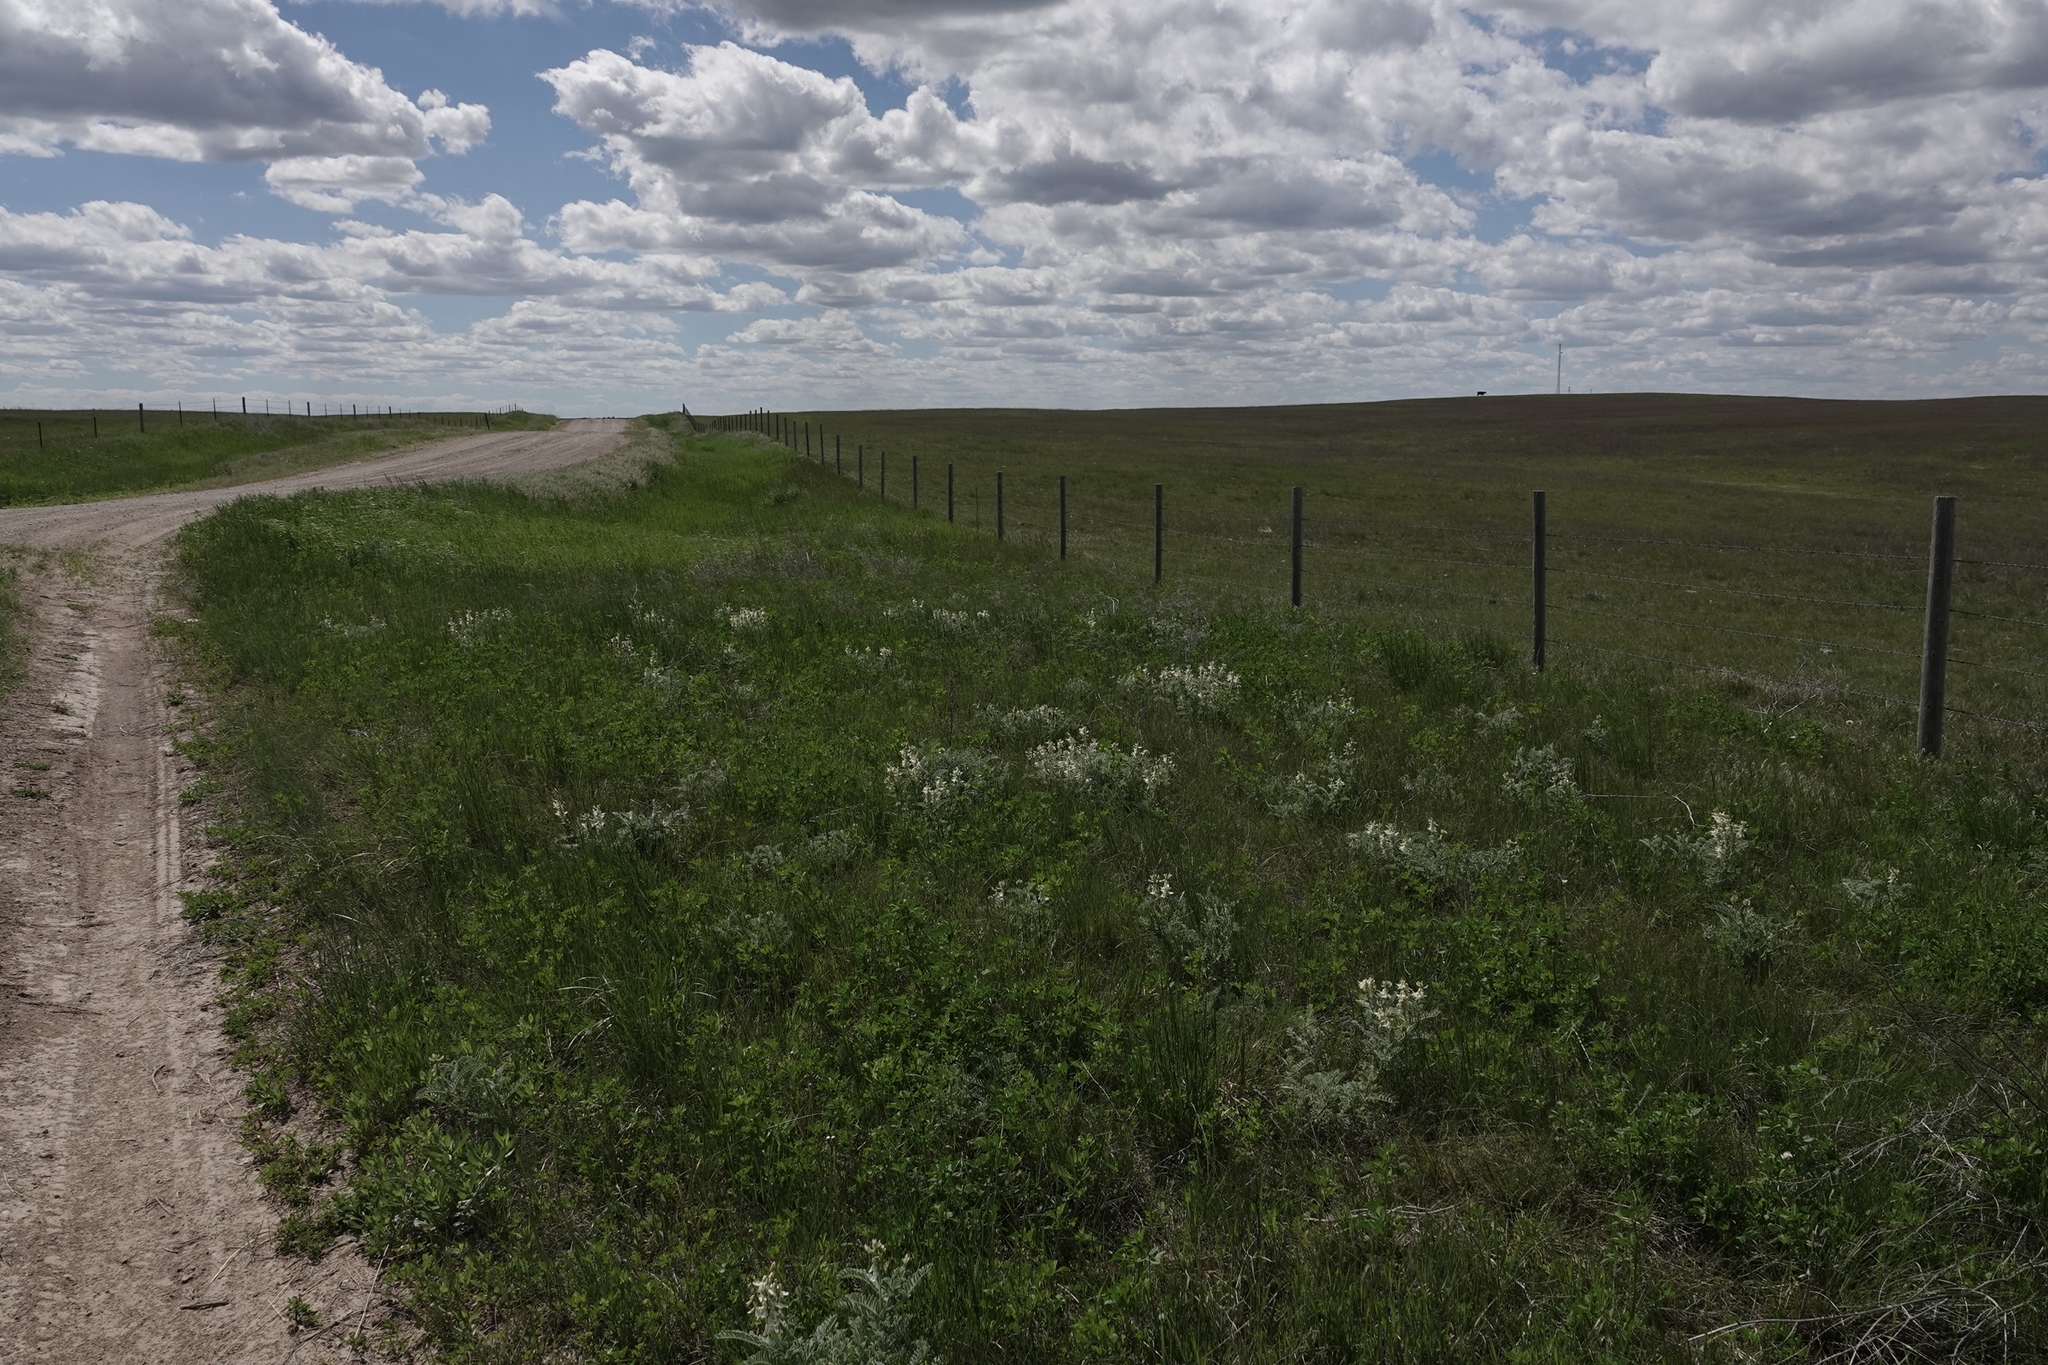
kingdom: Plantae
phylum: Tracheophyta
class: Magnoliopsida
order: Fabales
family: Fabaceae
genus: Astragalus
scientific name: Astragalus drummondii
